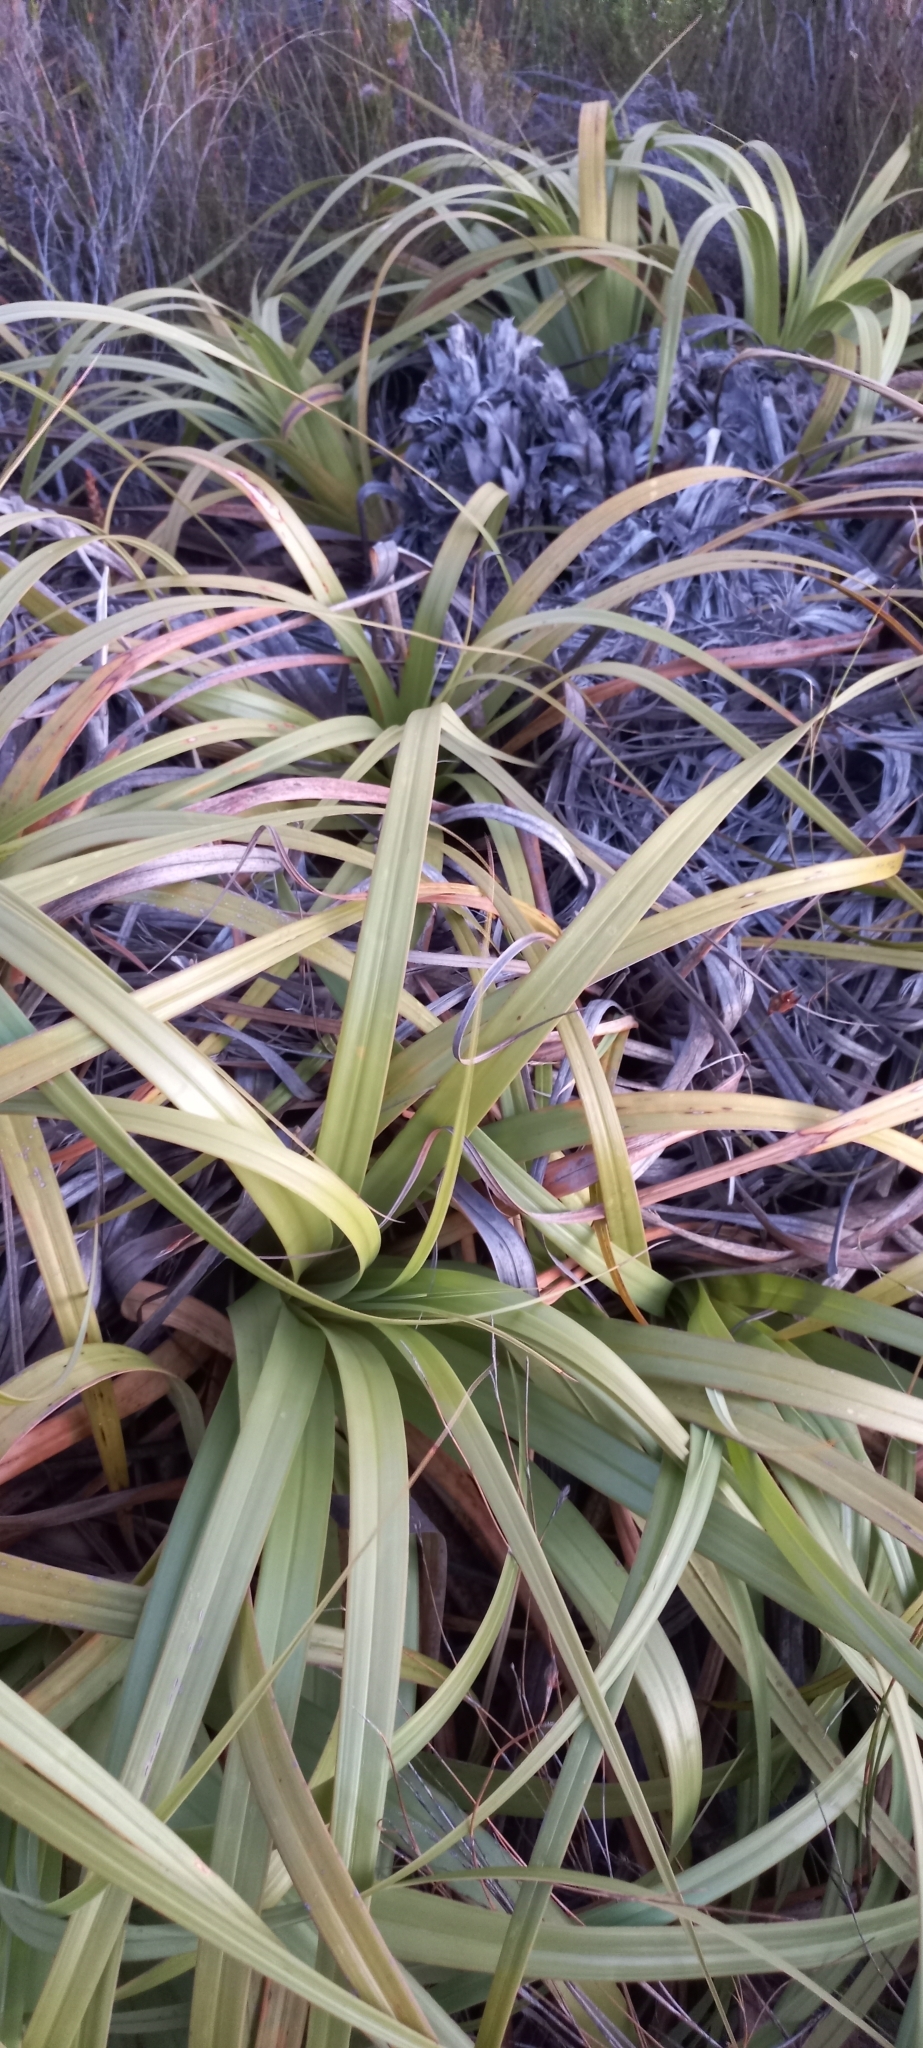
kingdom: Plantae
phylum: Tracheophyta
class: Liliopsida
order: Poales
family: Cyperaceae
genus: Tetraria
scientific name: Tetraria thermalis
